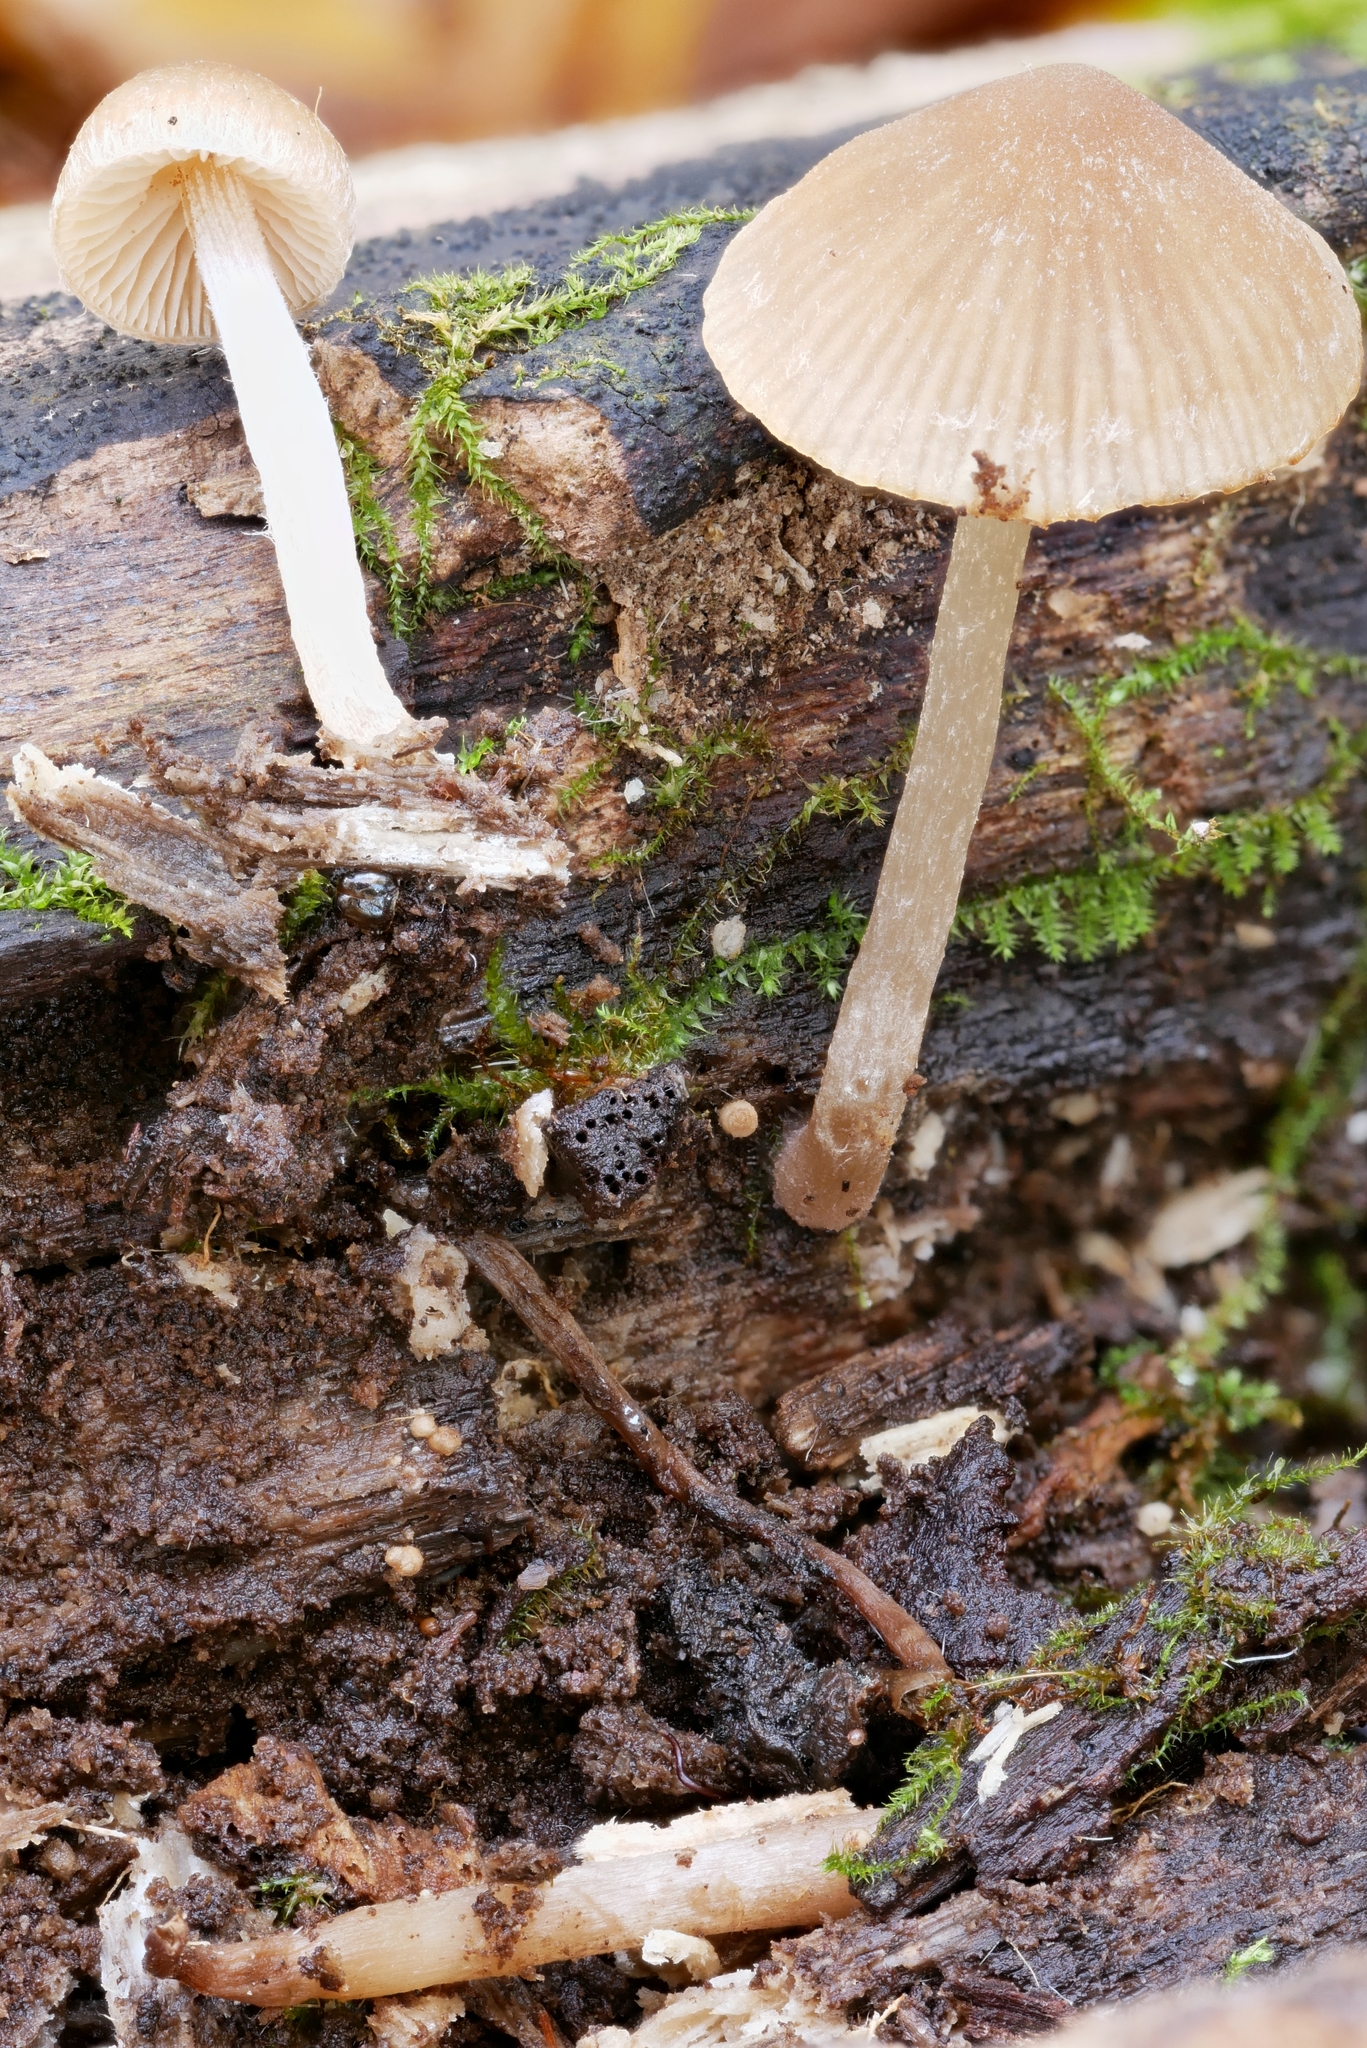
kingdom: Fungi
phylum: Basidiomycota
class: Agaricomycetes
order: Agaricales
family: Psathyrellaceae
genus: Psathyrella
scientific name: Psathyrella psammophila
